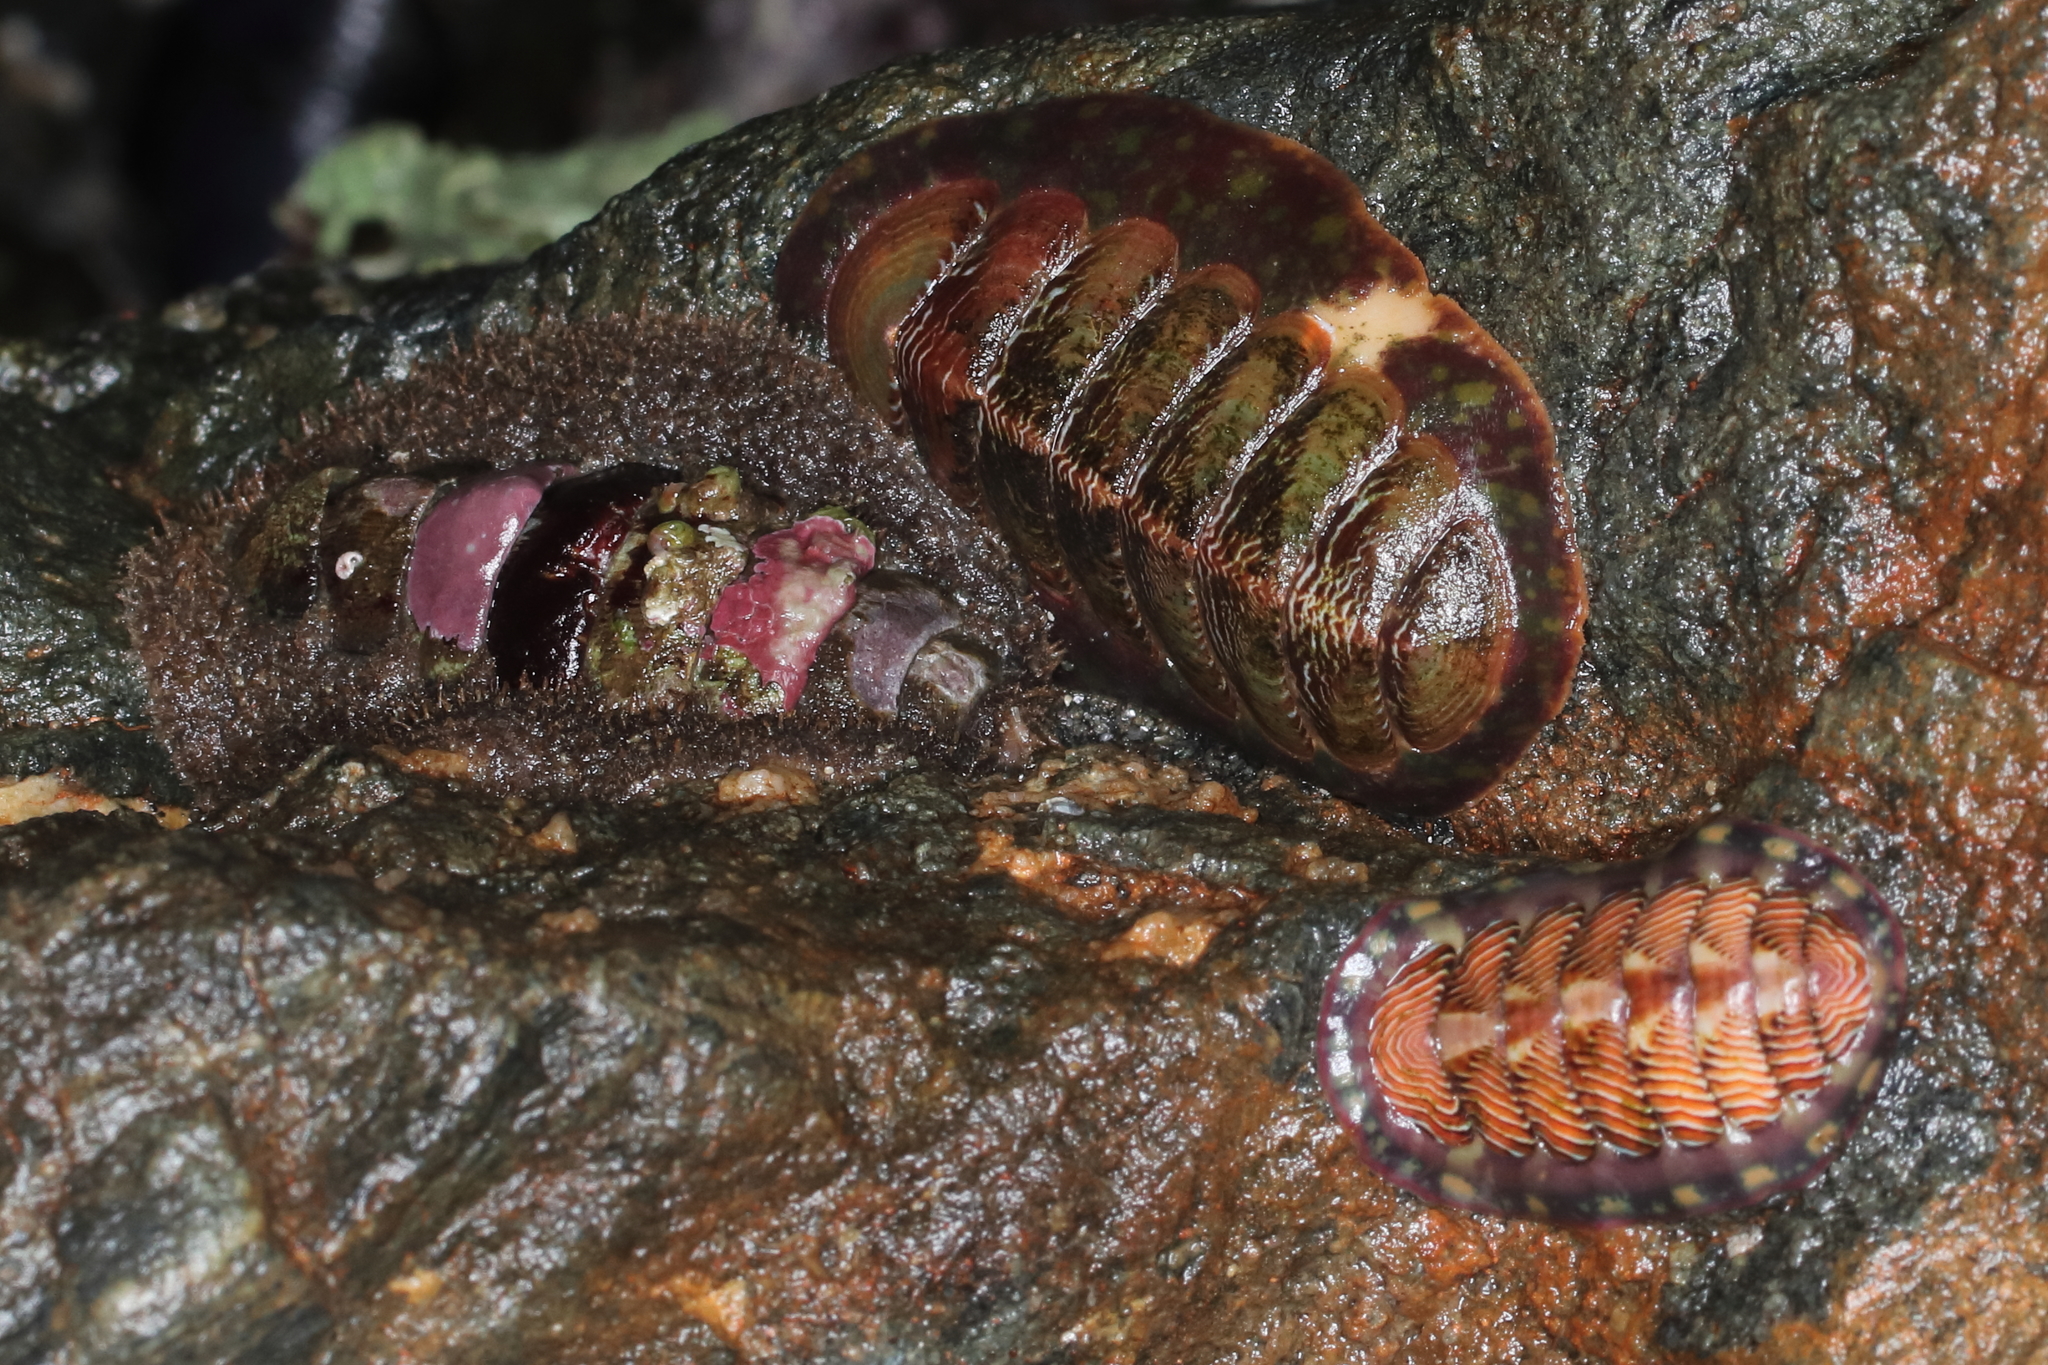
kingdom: Animalia
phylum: Mollusca
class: Polyplacophora
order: Chitonida
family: Tonicellidae
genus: Tonicella
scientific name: Tonicella insignis
